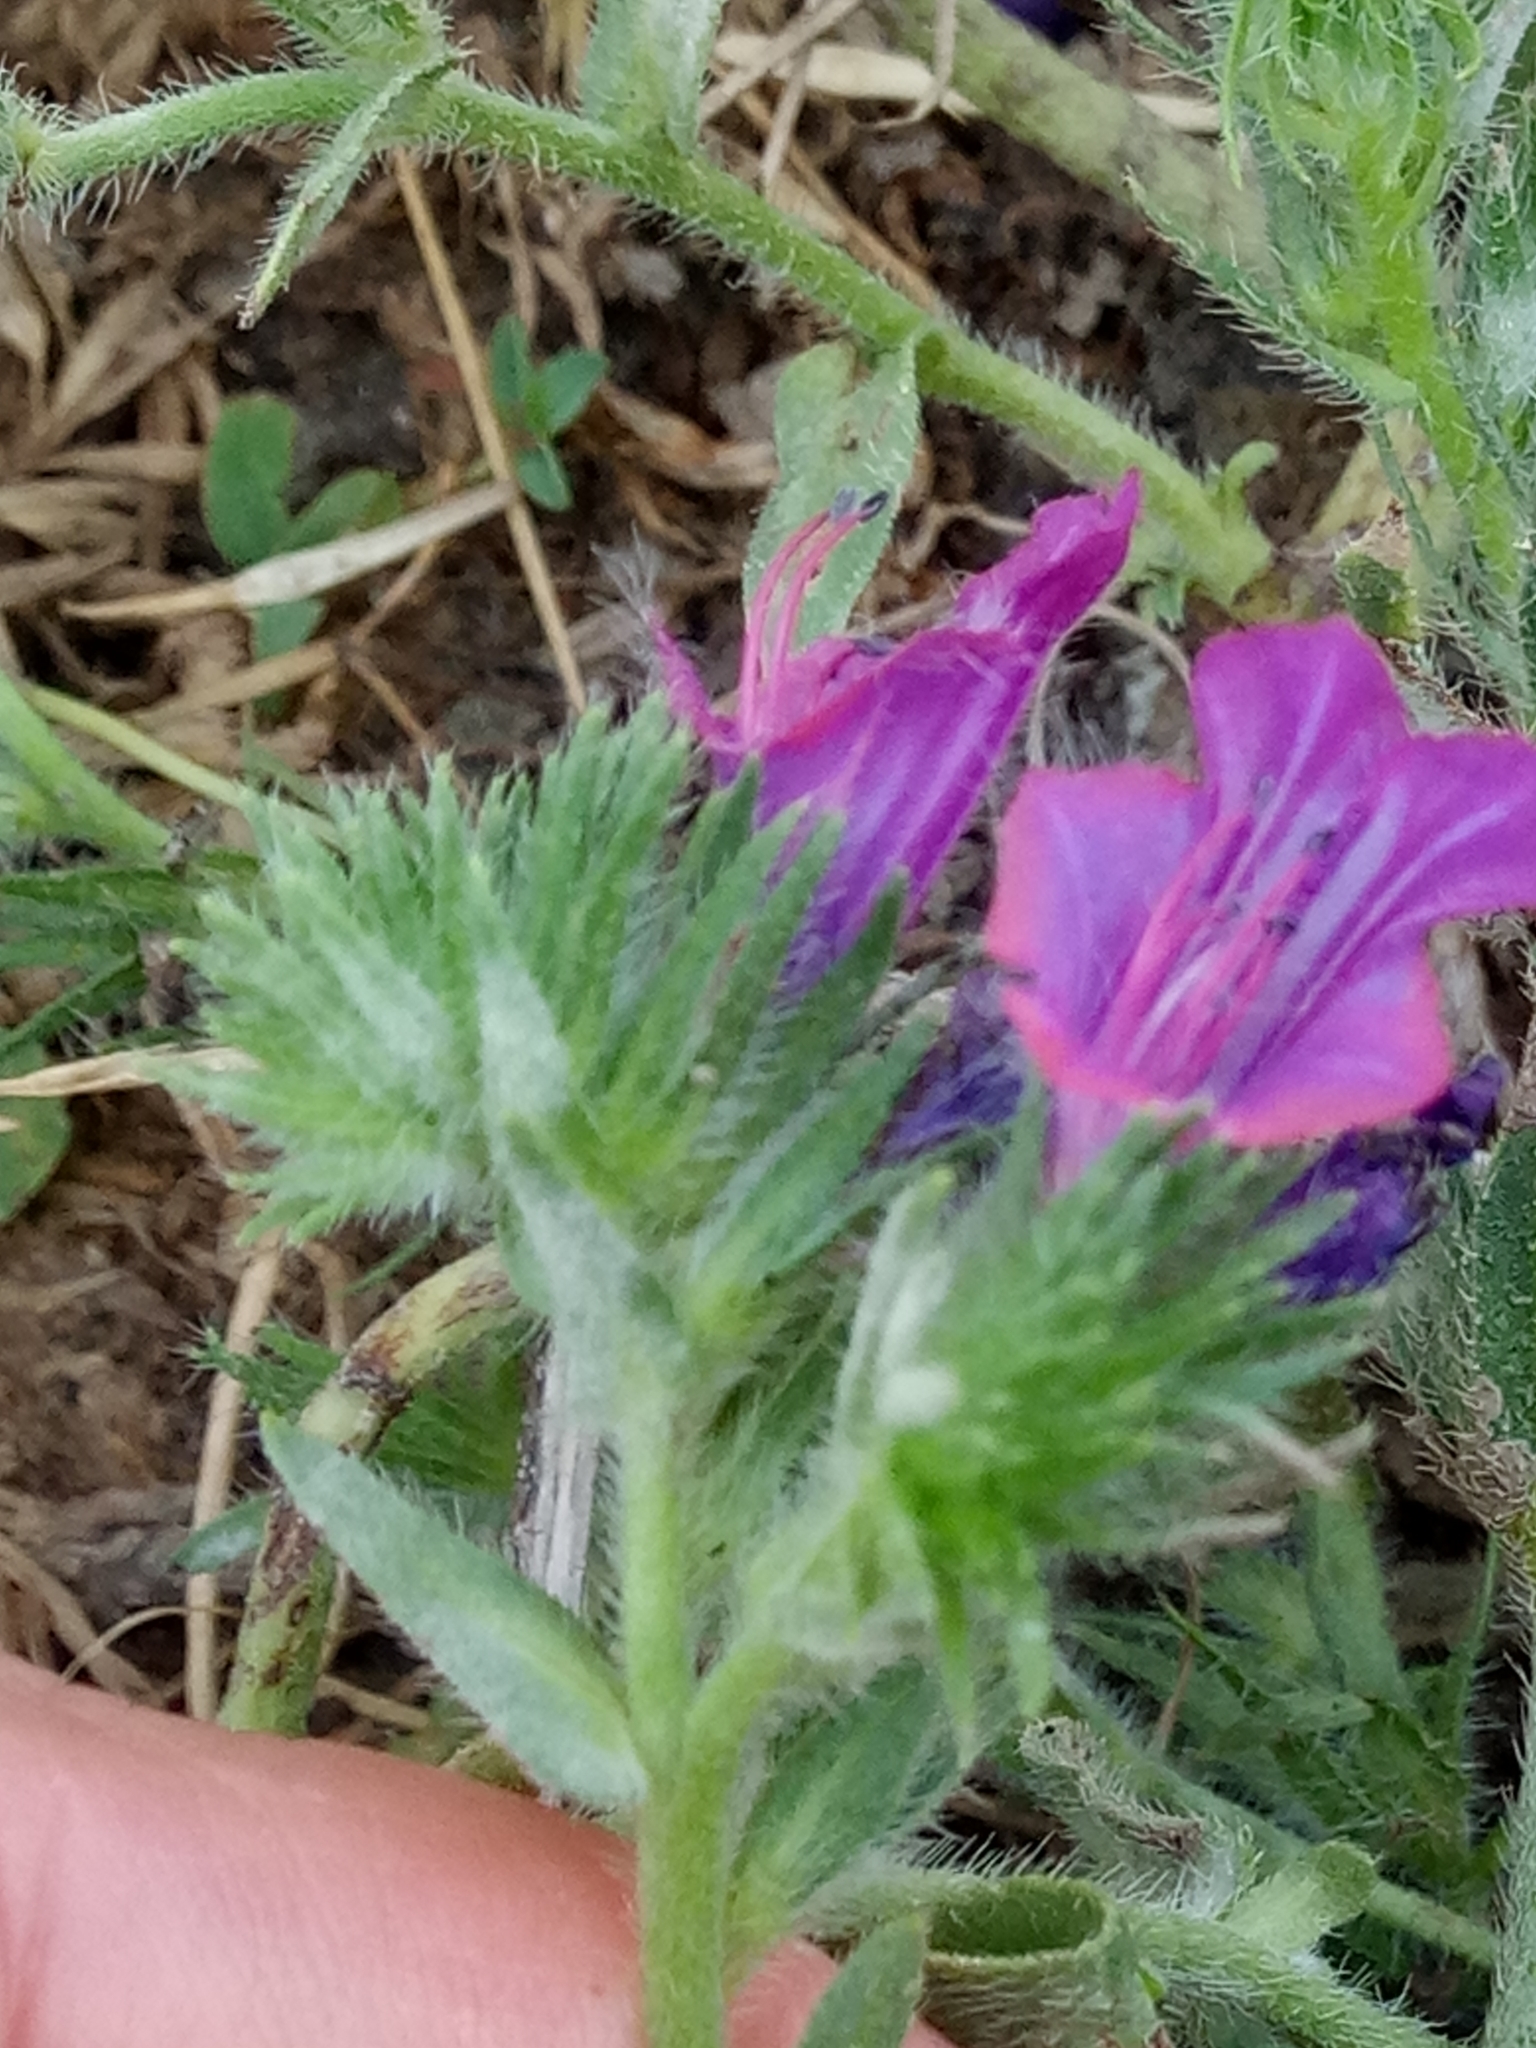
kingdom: Plantae
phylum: Tracheophyta
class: Magnoliopsida
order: Boraginales
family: Boraginaceae
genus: Echium
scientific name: Echium plantagineum
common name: Purple viper's-bugloss
